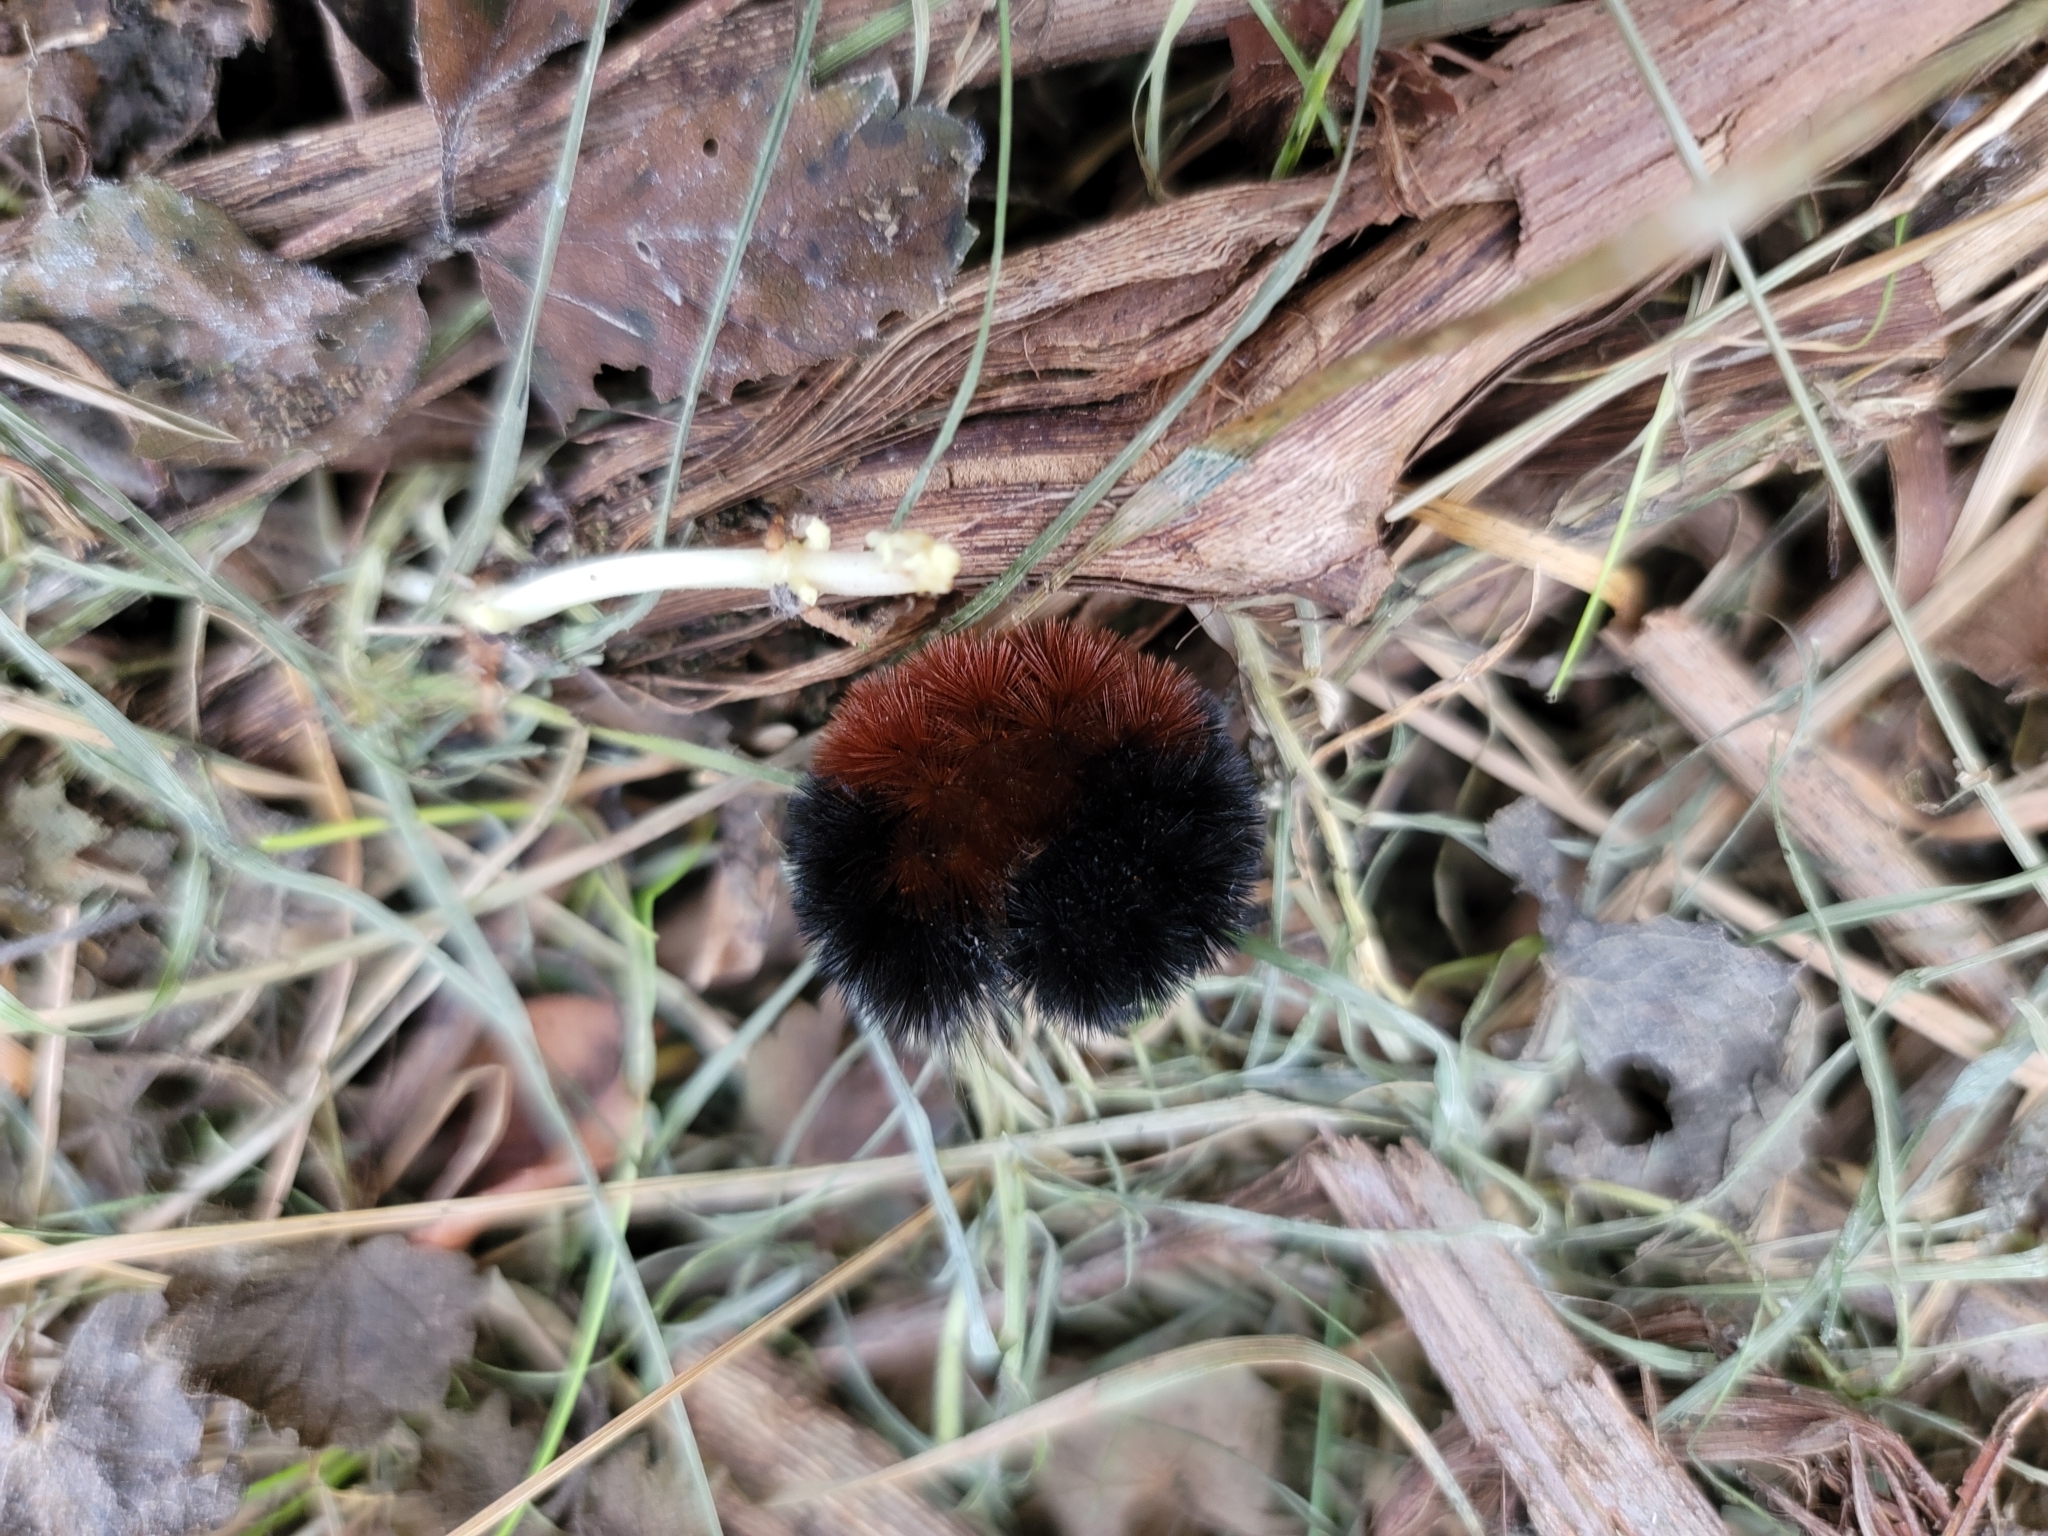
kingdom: Animalia
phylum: Arthropoda
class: Insecta
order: Lepidoptera
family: Erebidae
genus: Pyrrharctia
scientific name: Pyrrharctia isabella
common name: Isabella tiger moth
